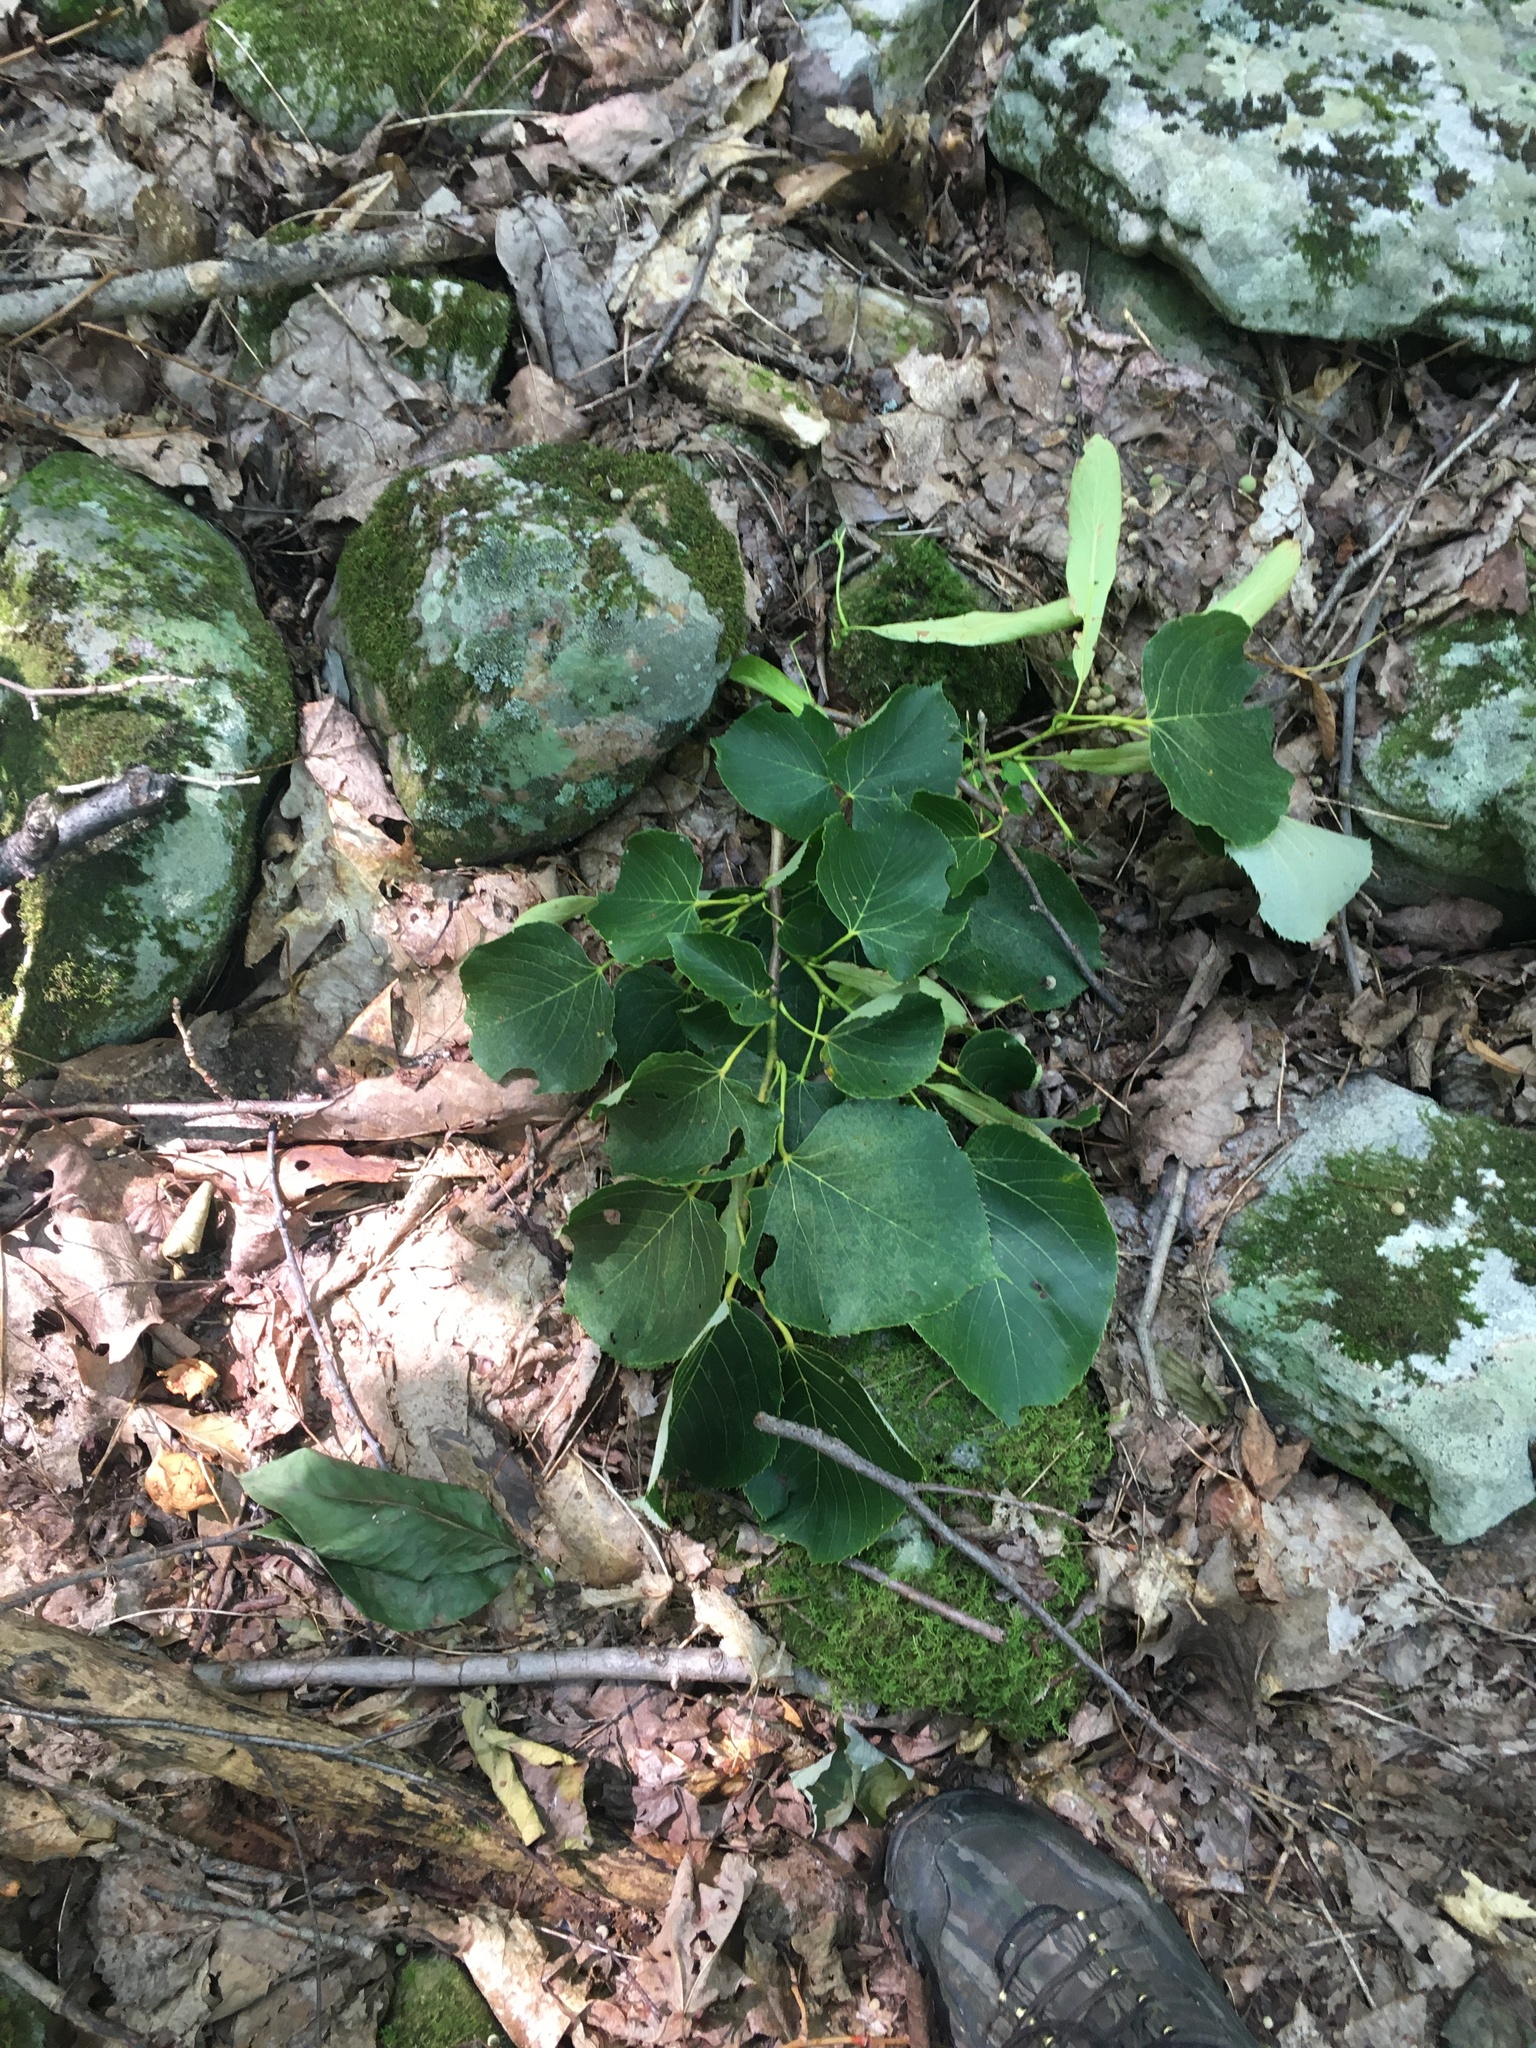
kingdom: Plantae
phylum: Tracheophyta
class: Magnoliopsida
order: Malvales
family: Malvaceae
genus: Tilia
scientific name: Tilia americana
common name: Basswood
